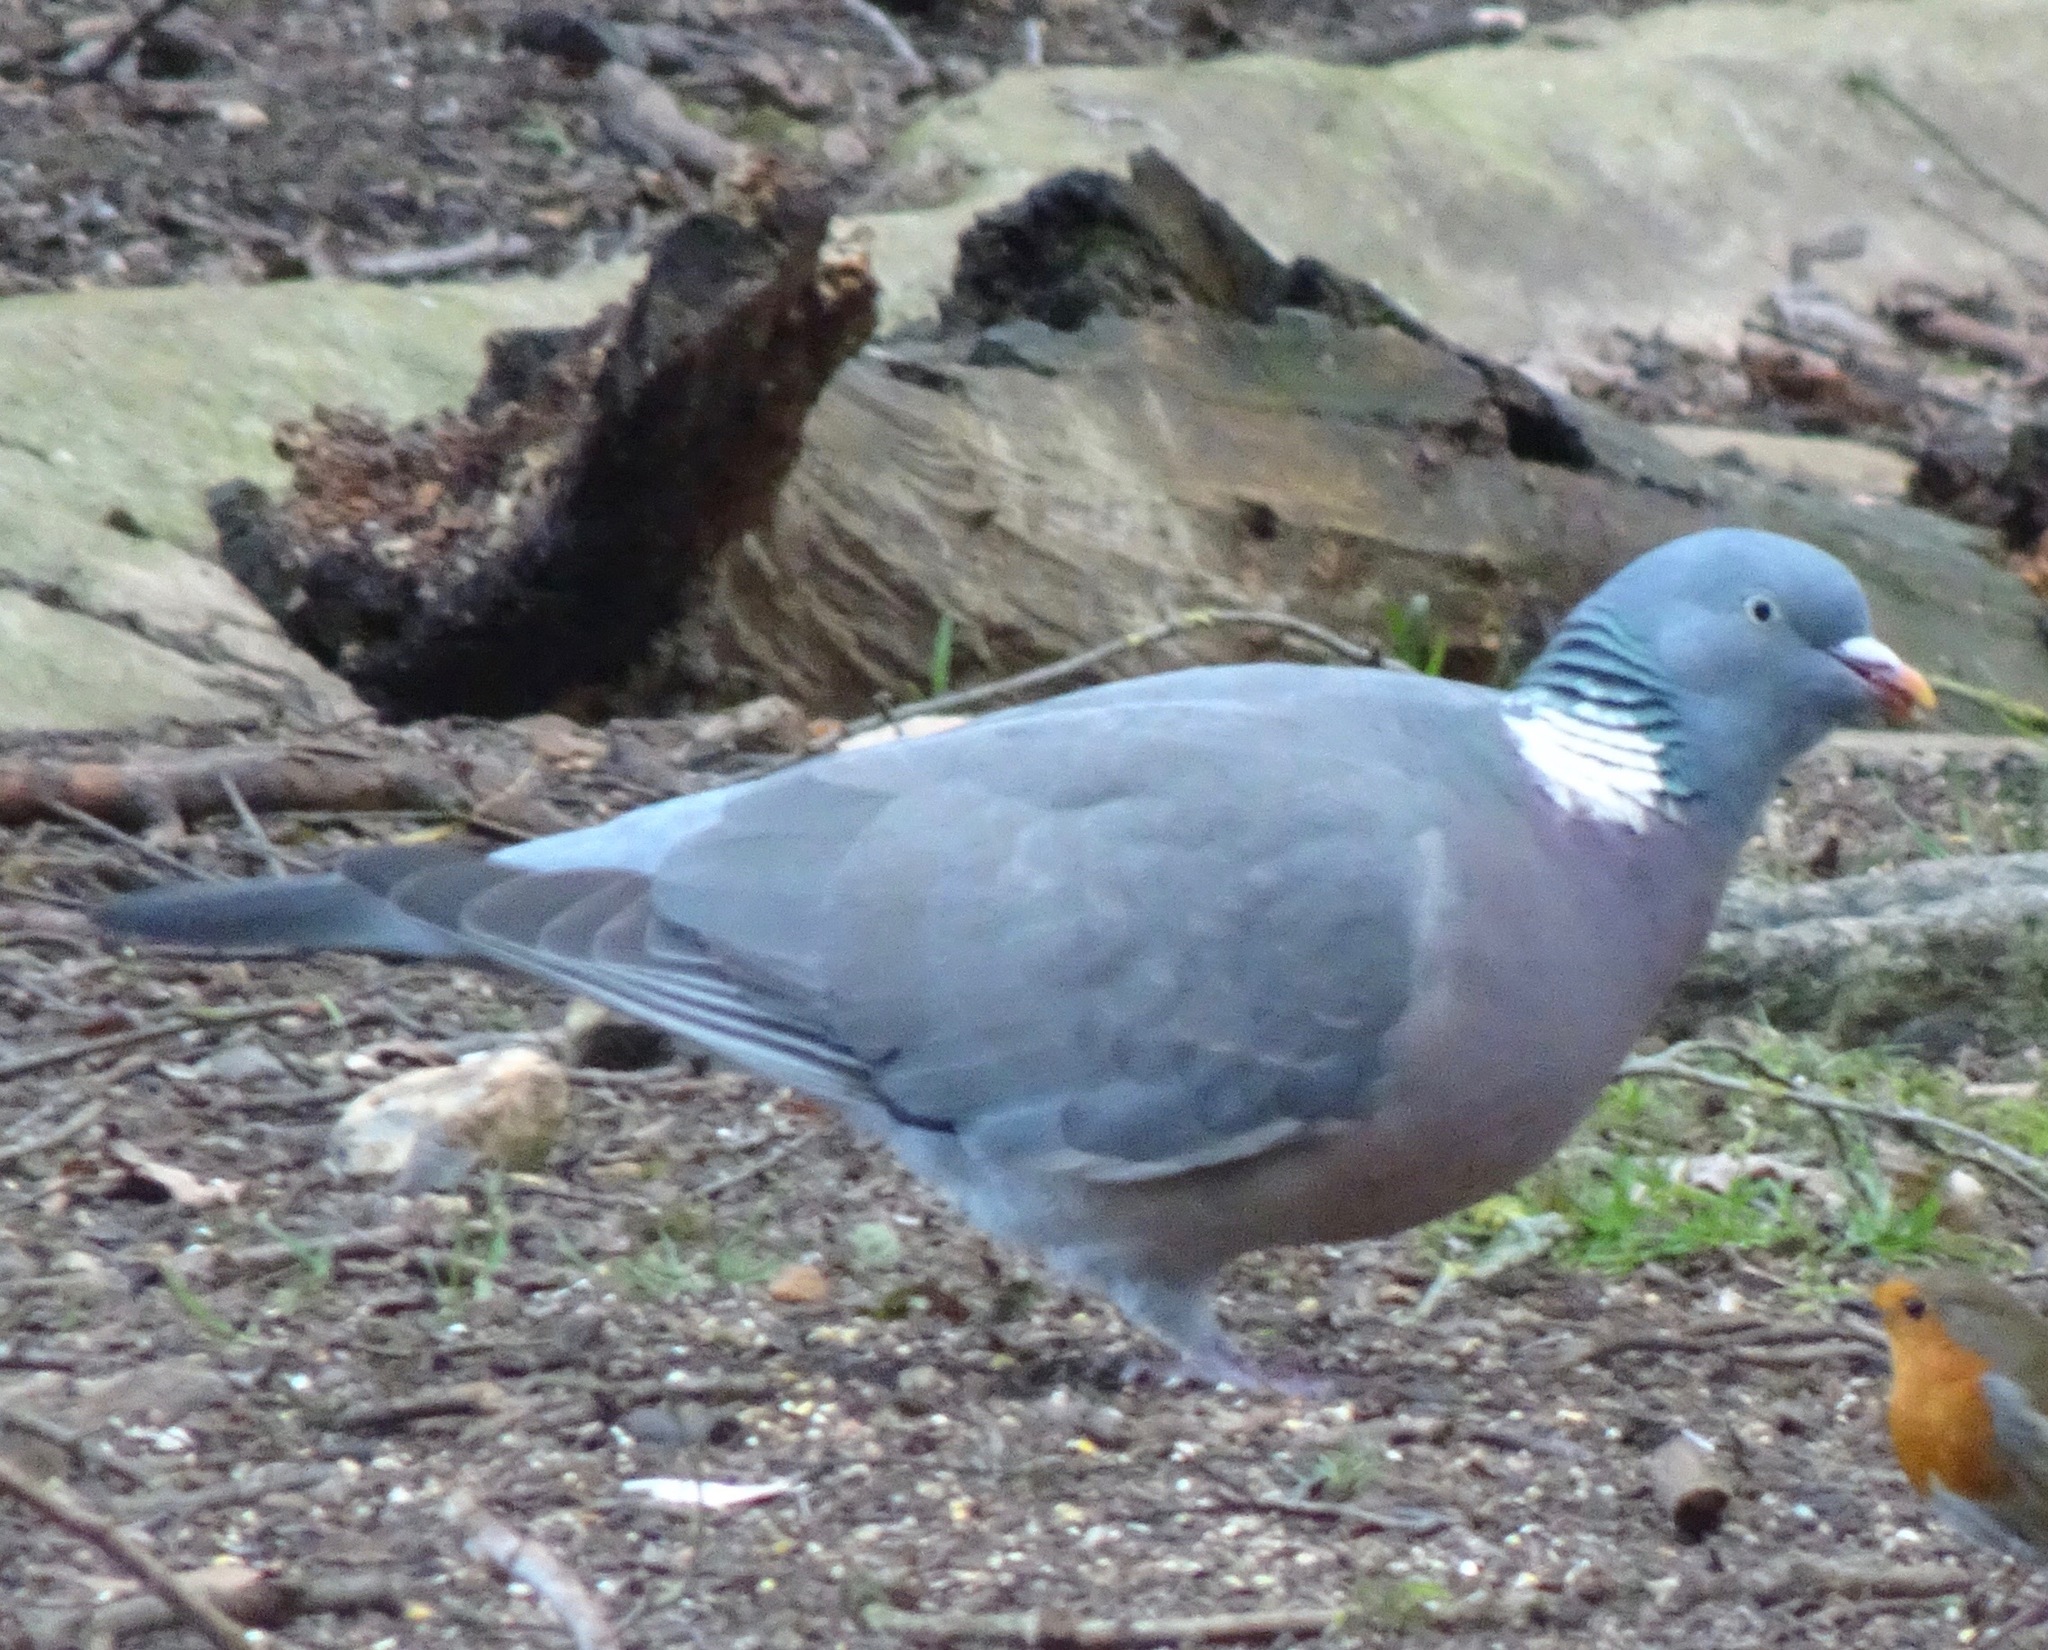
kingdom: Animalia
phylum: Chordata
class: Aves
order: Columbiformes
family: Columbidae
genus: Columba
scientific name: Columba palumbus
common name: Common wood pigeon
